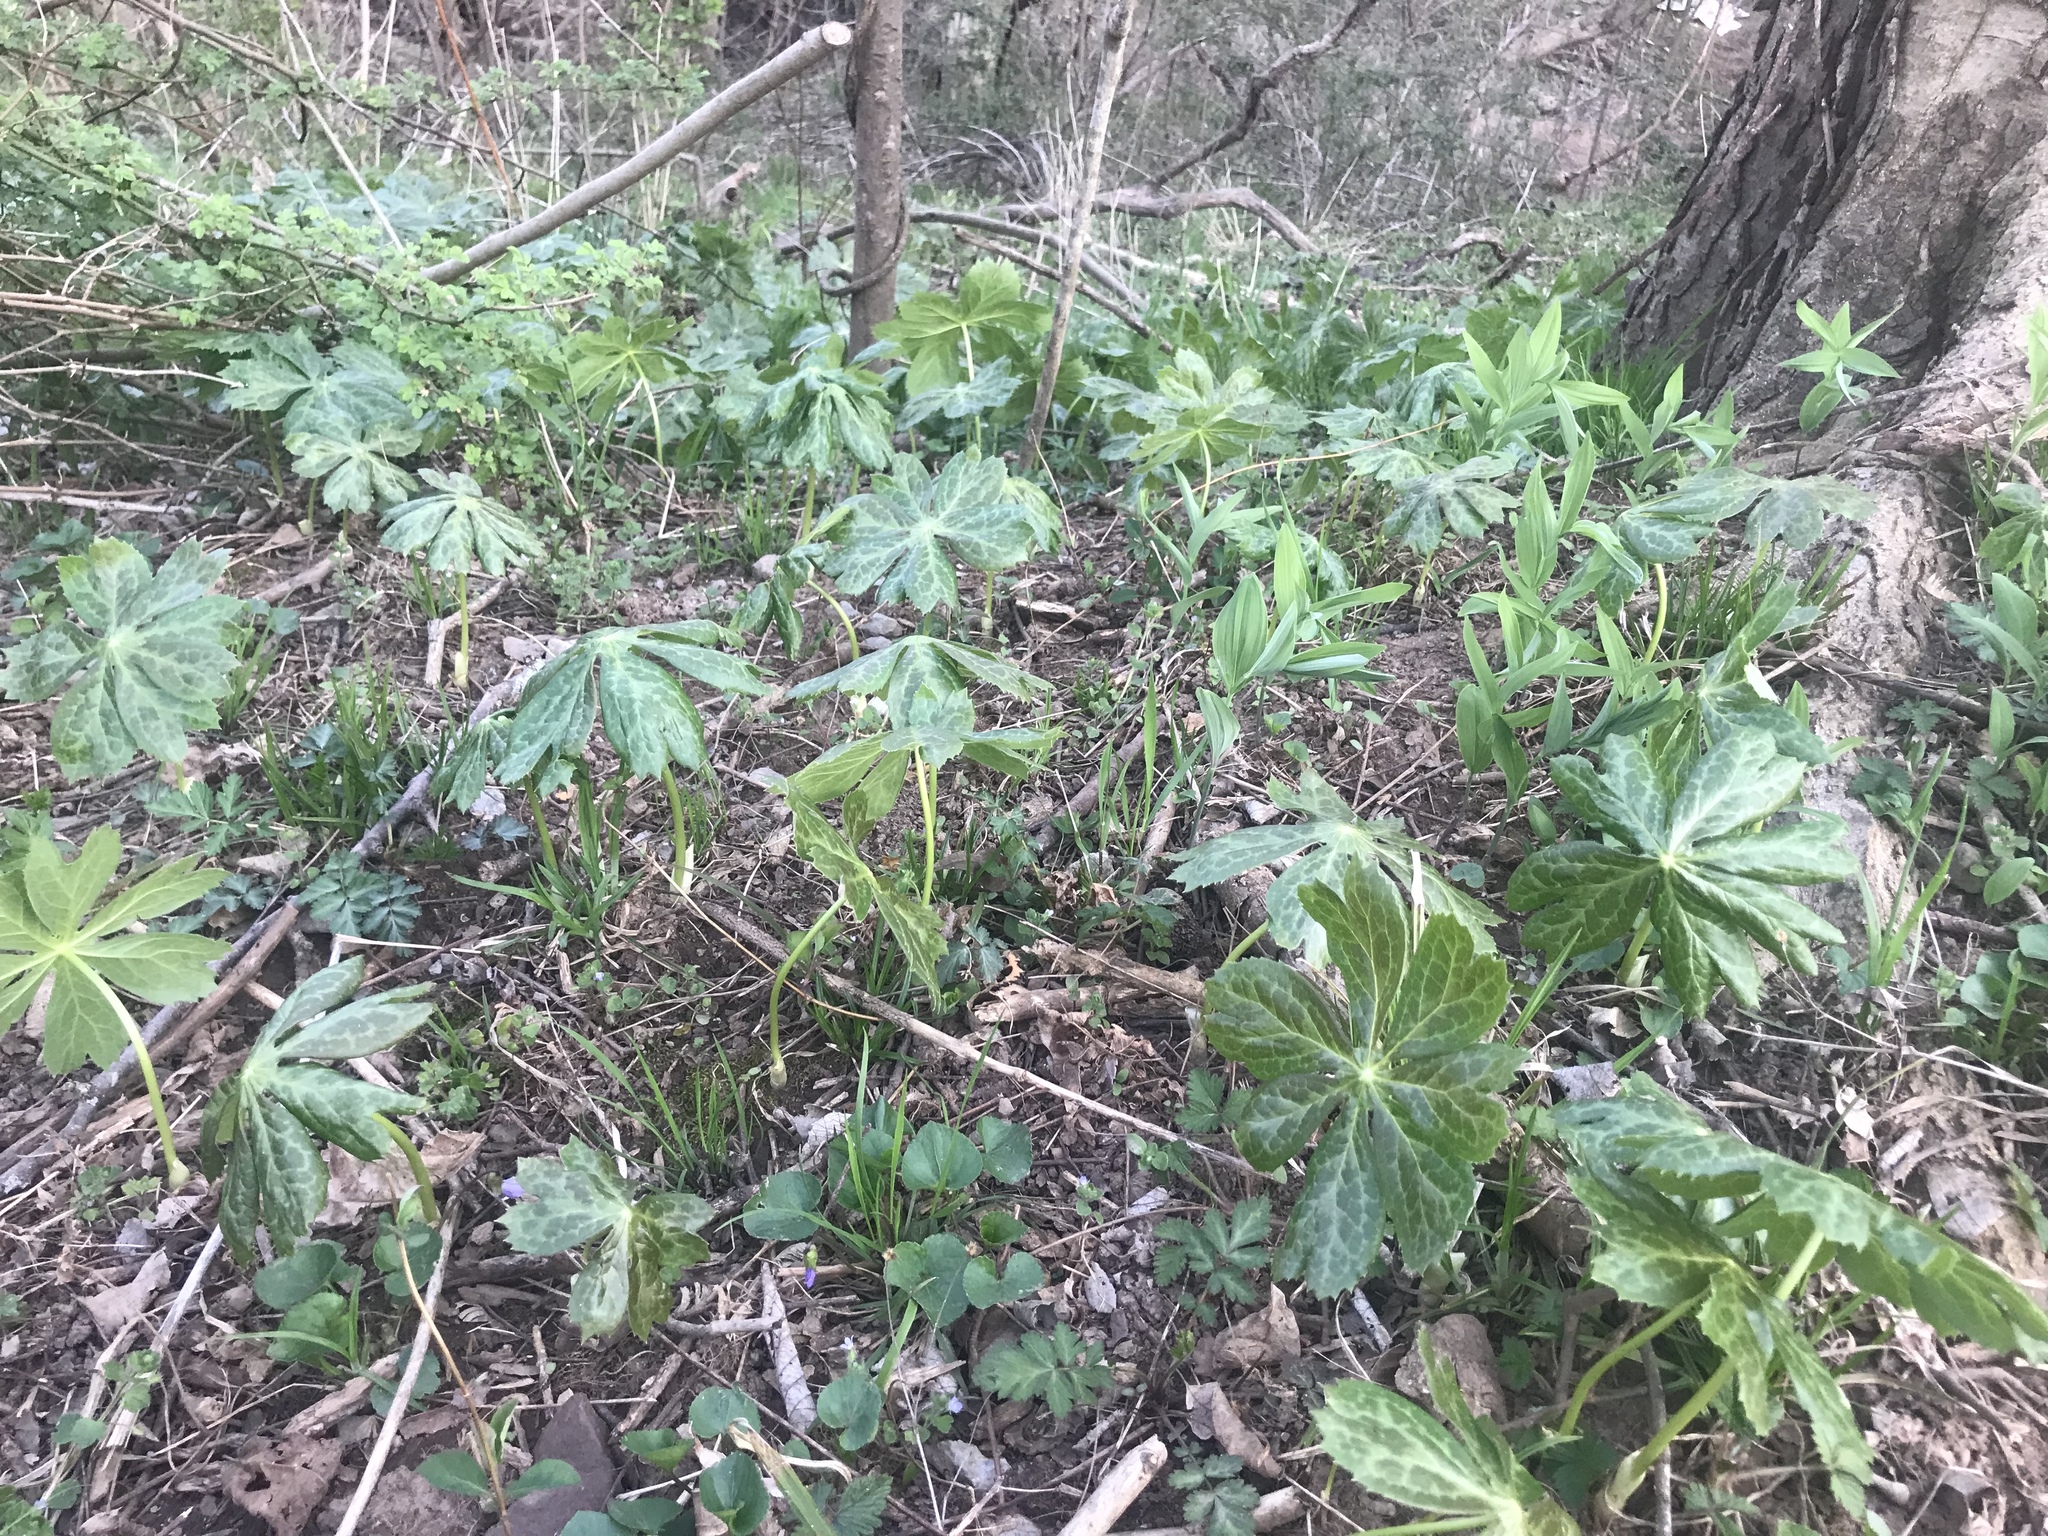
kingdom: Plantae
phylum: Tracheophyta
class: Magnoliopsida
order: Ranunculales
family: Berberidaceae
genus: Podophyllum
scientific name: Podophyllum peltatum
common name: Wild mandrake
